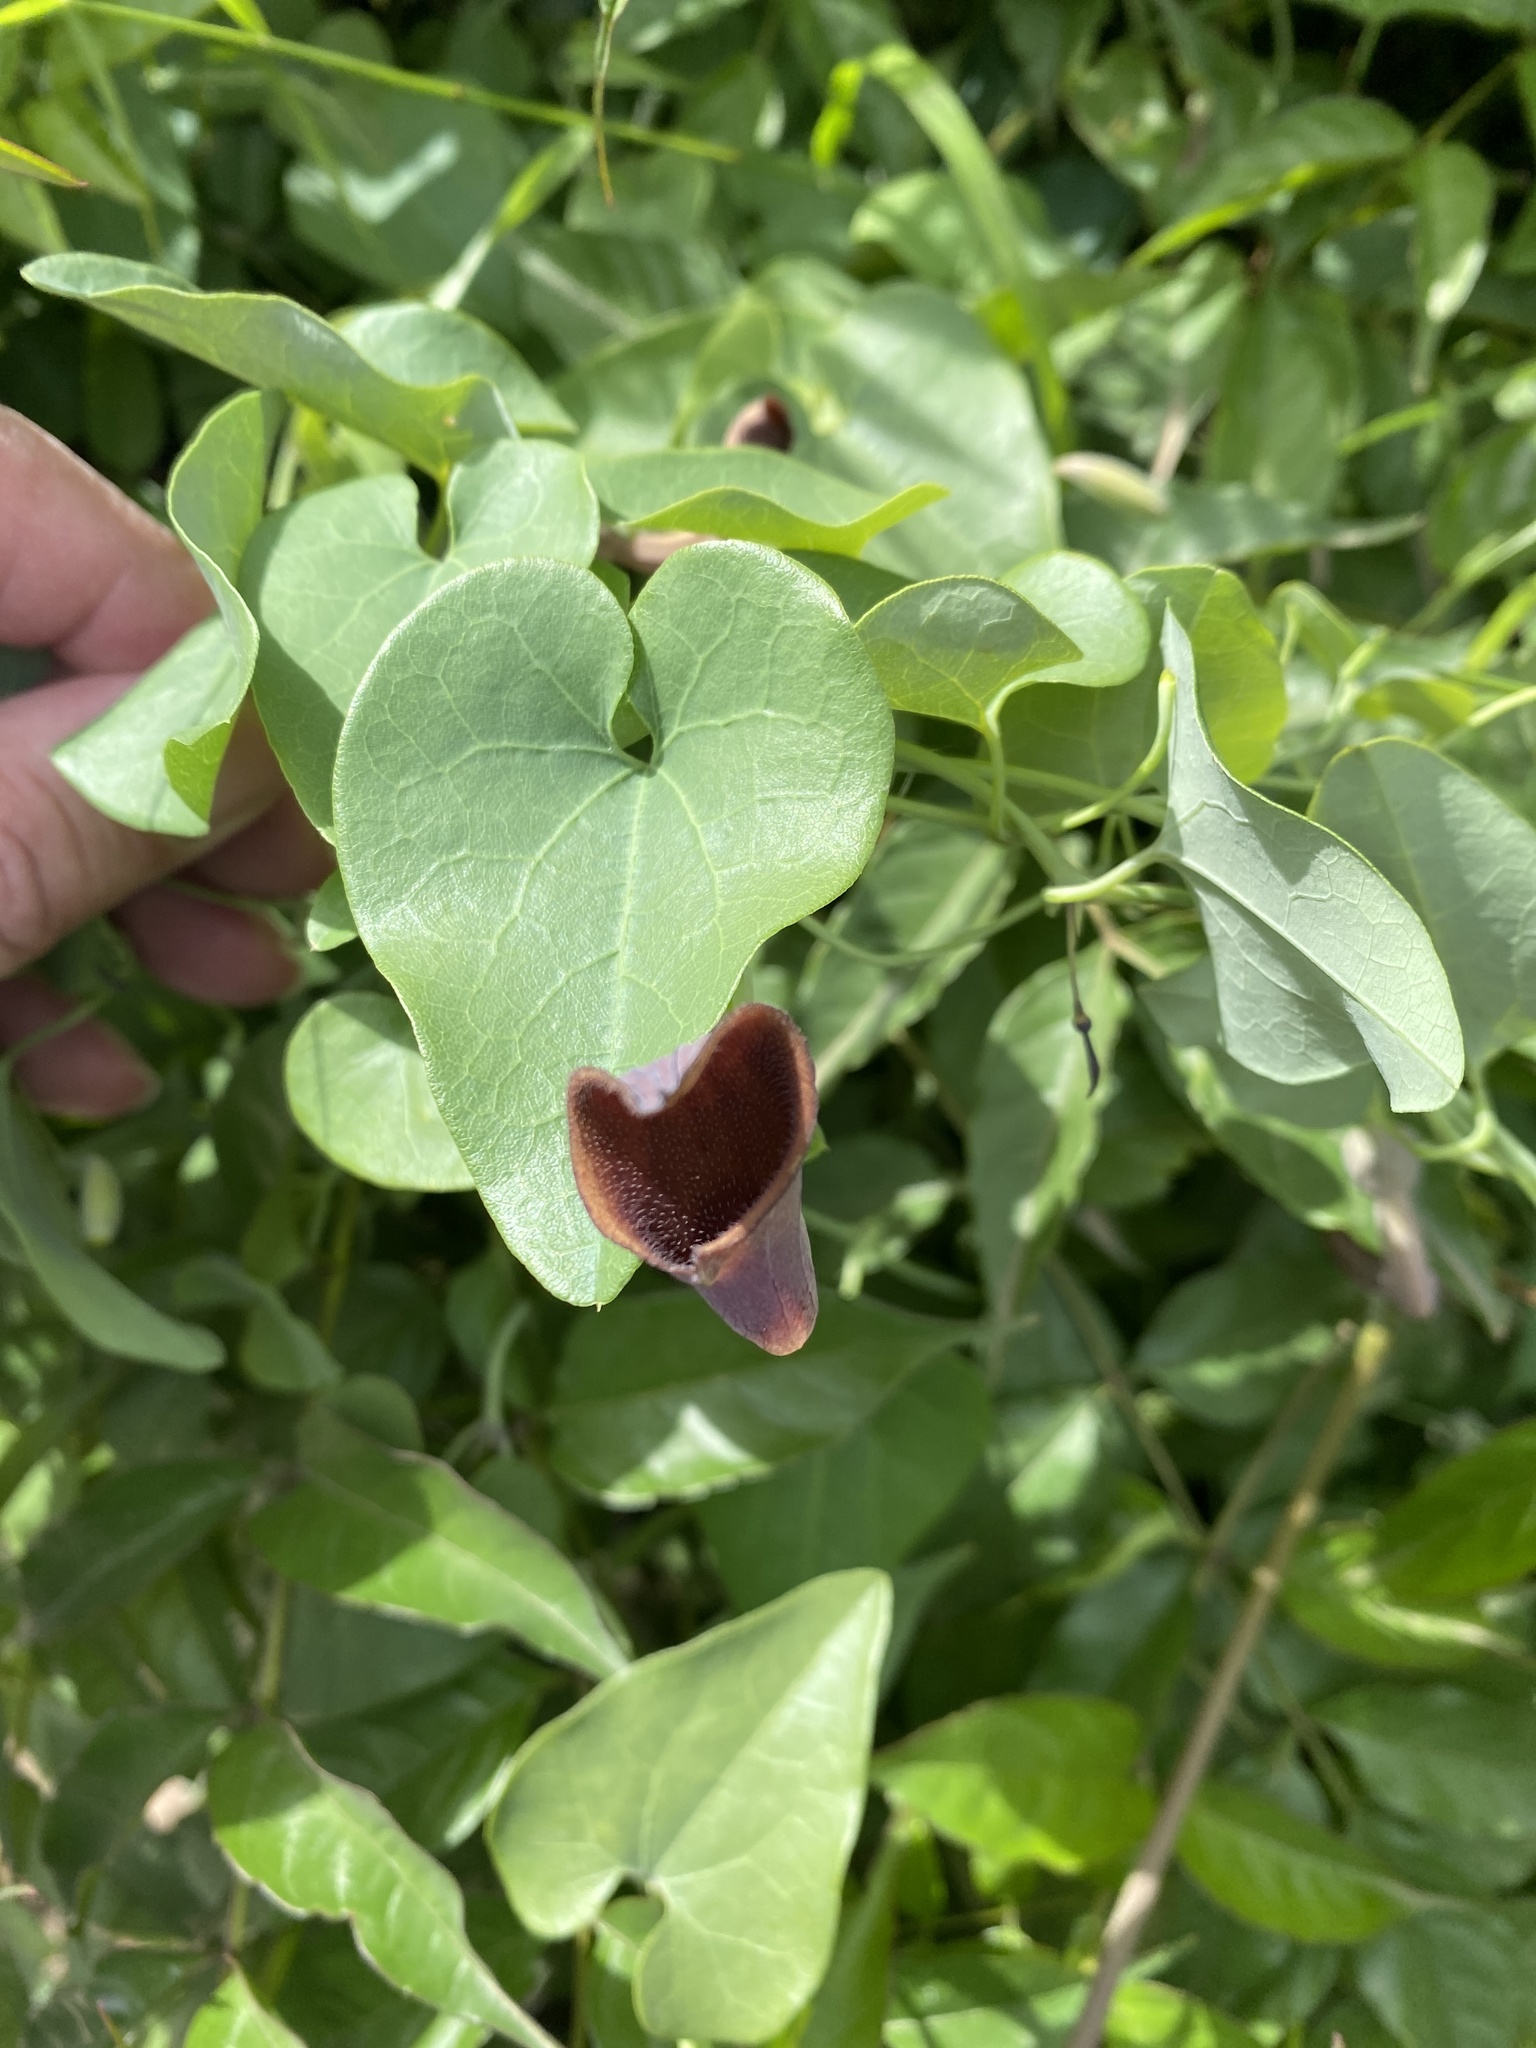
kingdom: Plantae
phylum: Tracheophyta
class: Magnoliopsida
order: Piperales
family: Aristolochiaceae
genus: Aristolochia
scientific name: Aristolochia baetica
